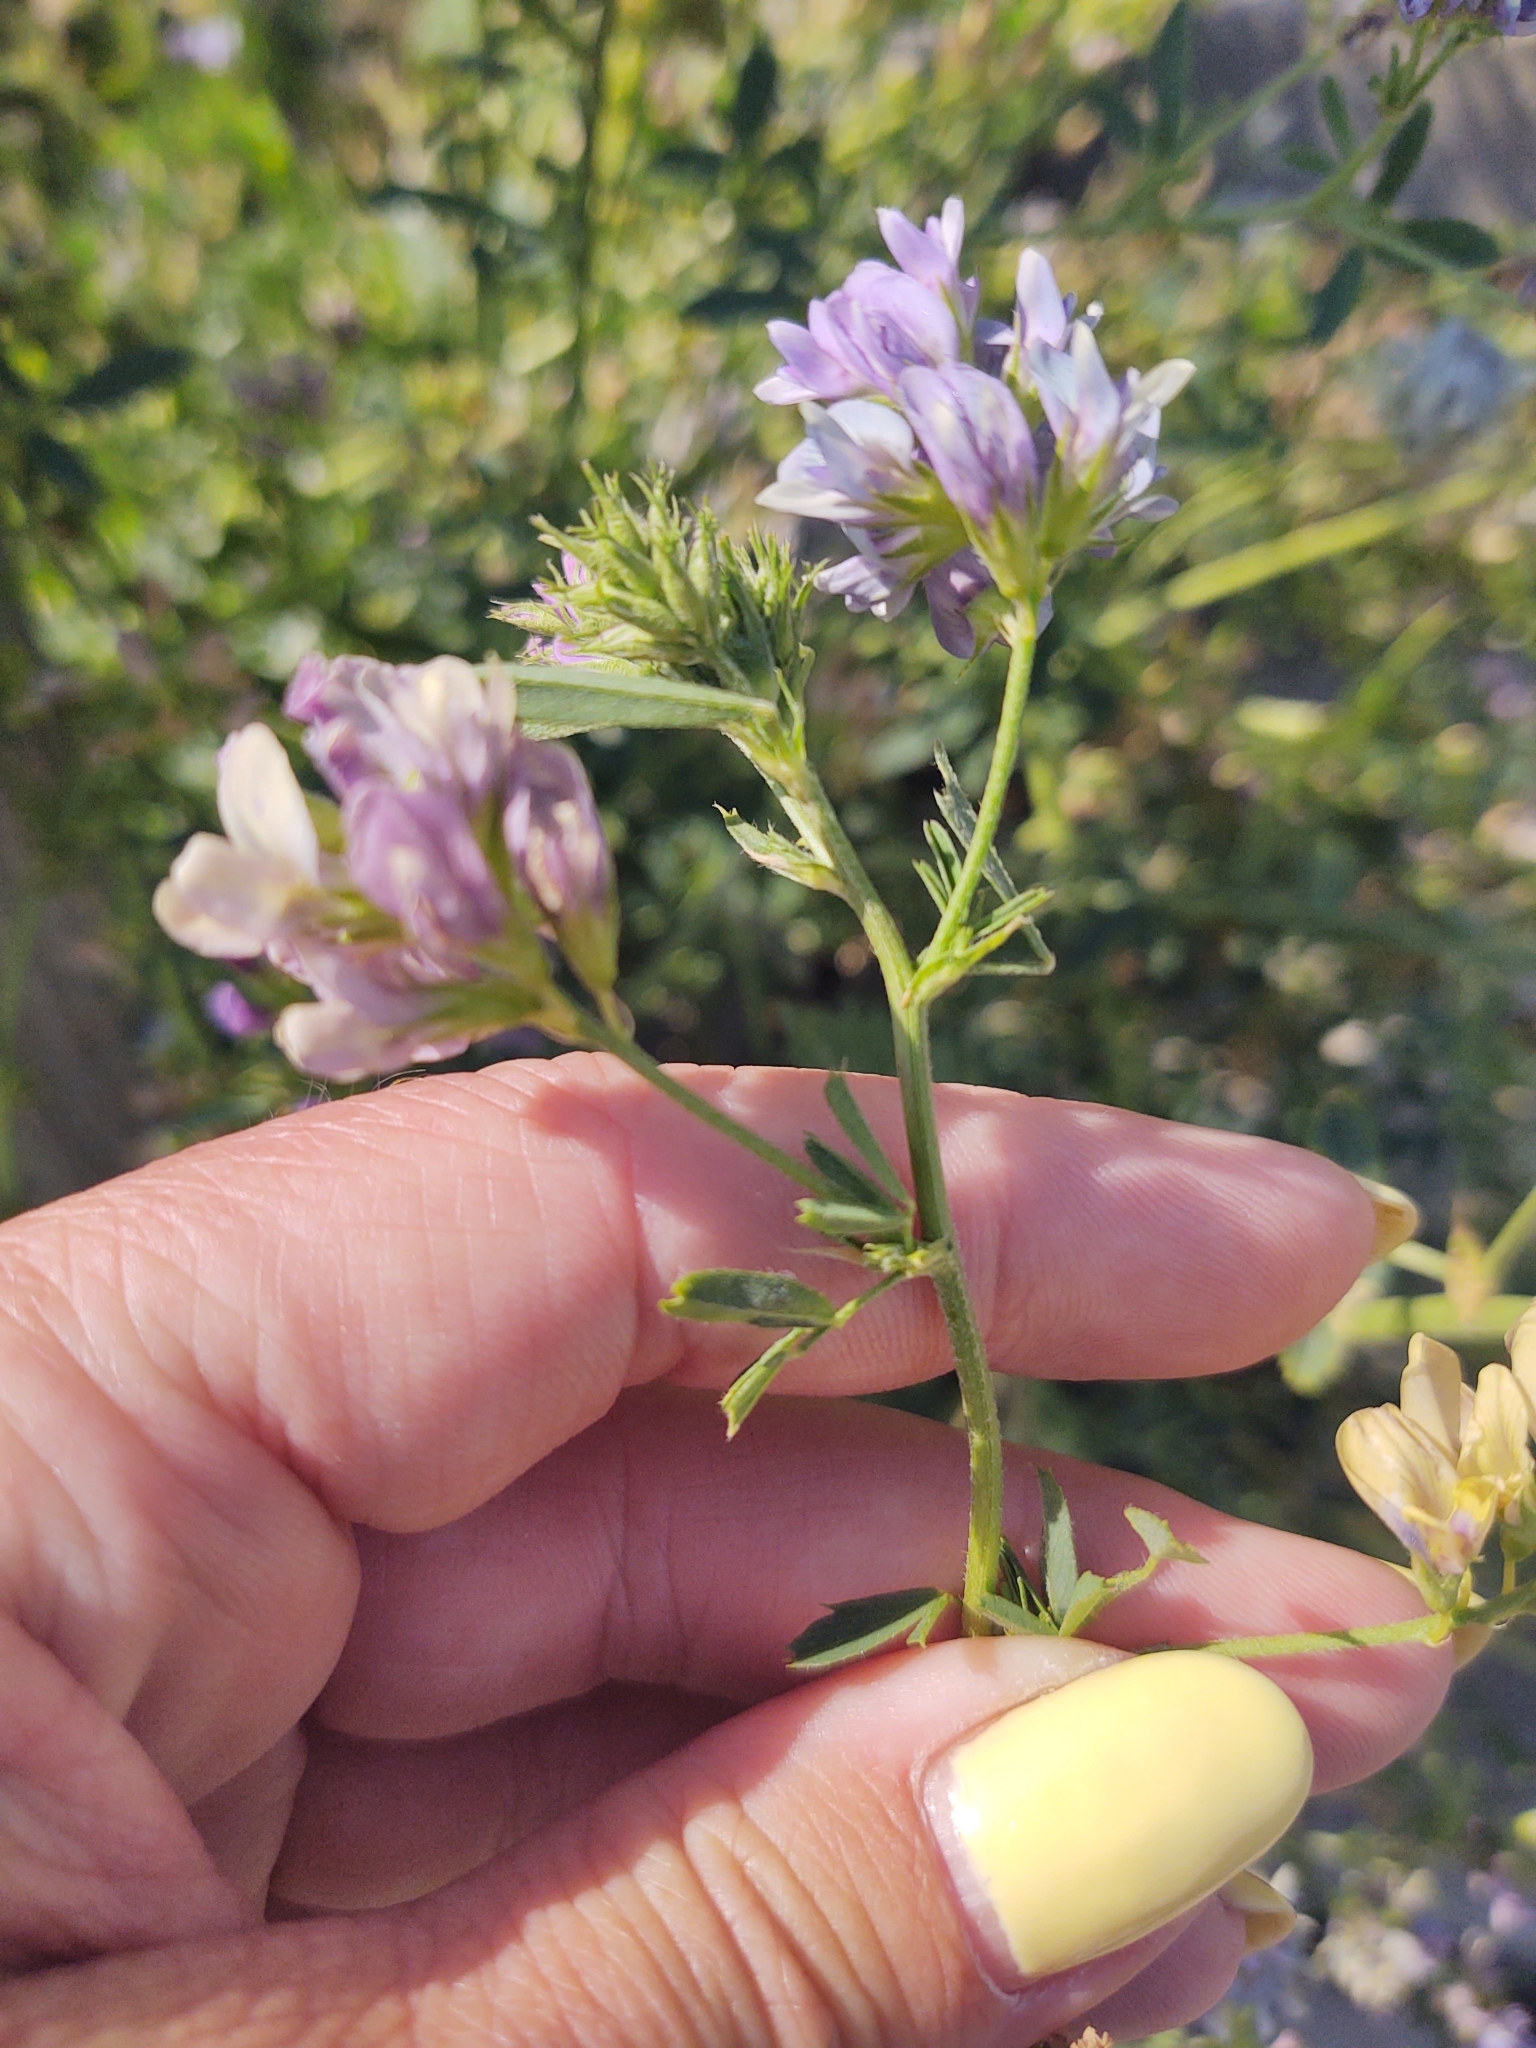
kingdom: Plantae
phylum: Tracheophyta
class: Magnoliopsida
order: Fabales
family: Fabaceae
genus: Medicago
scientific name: Medicago varia
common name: Sand lucerne
